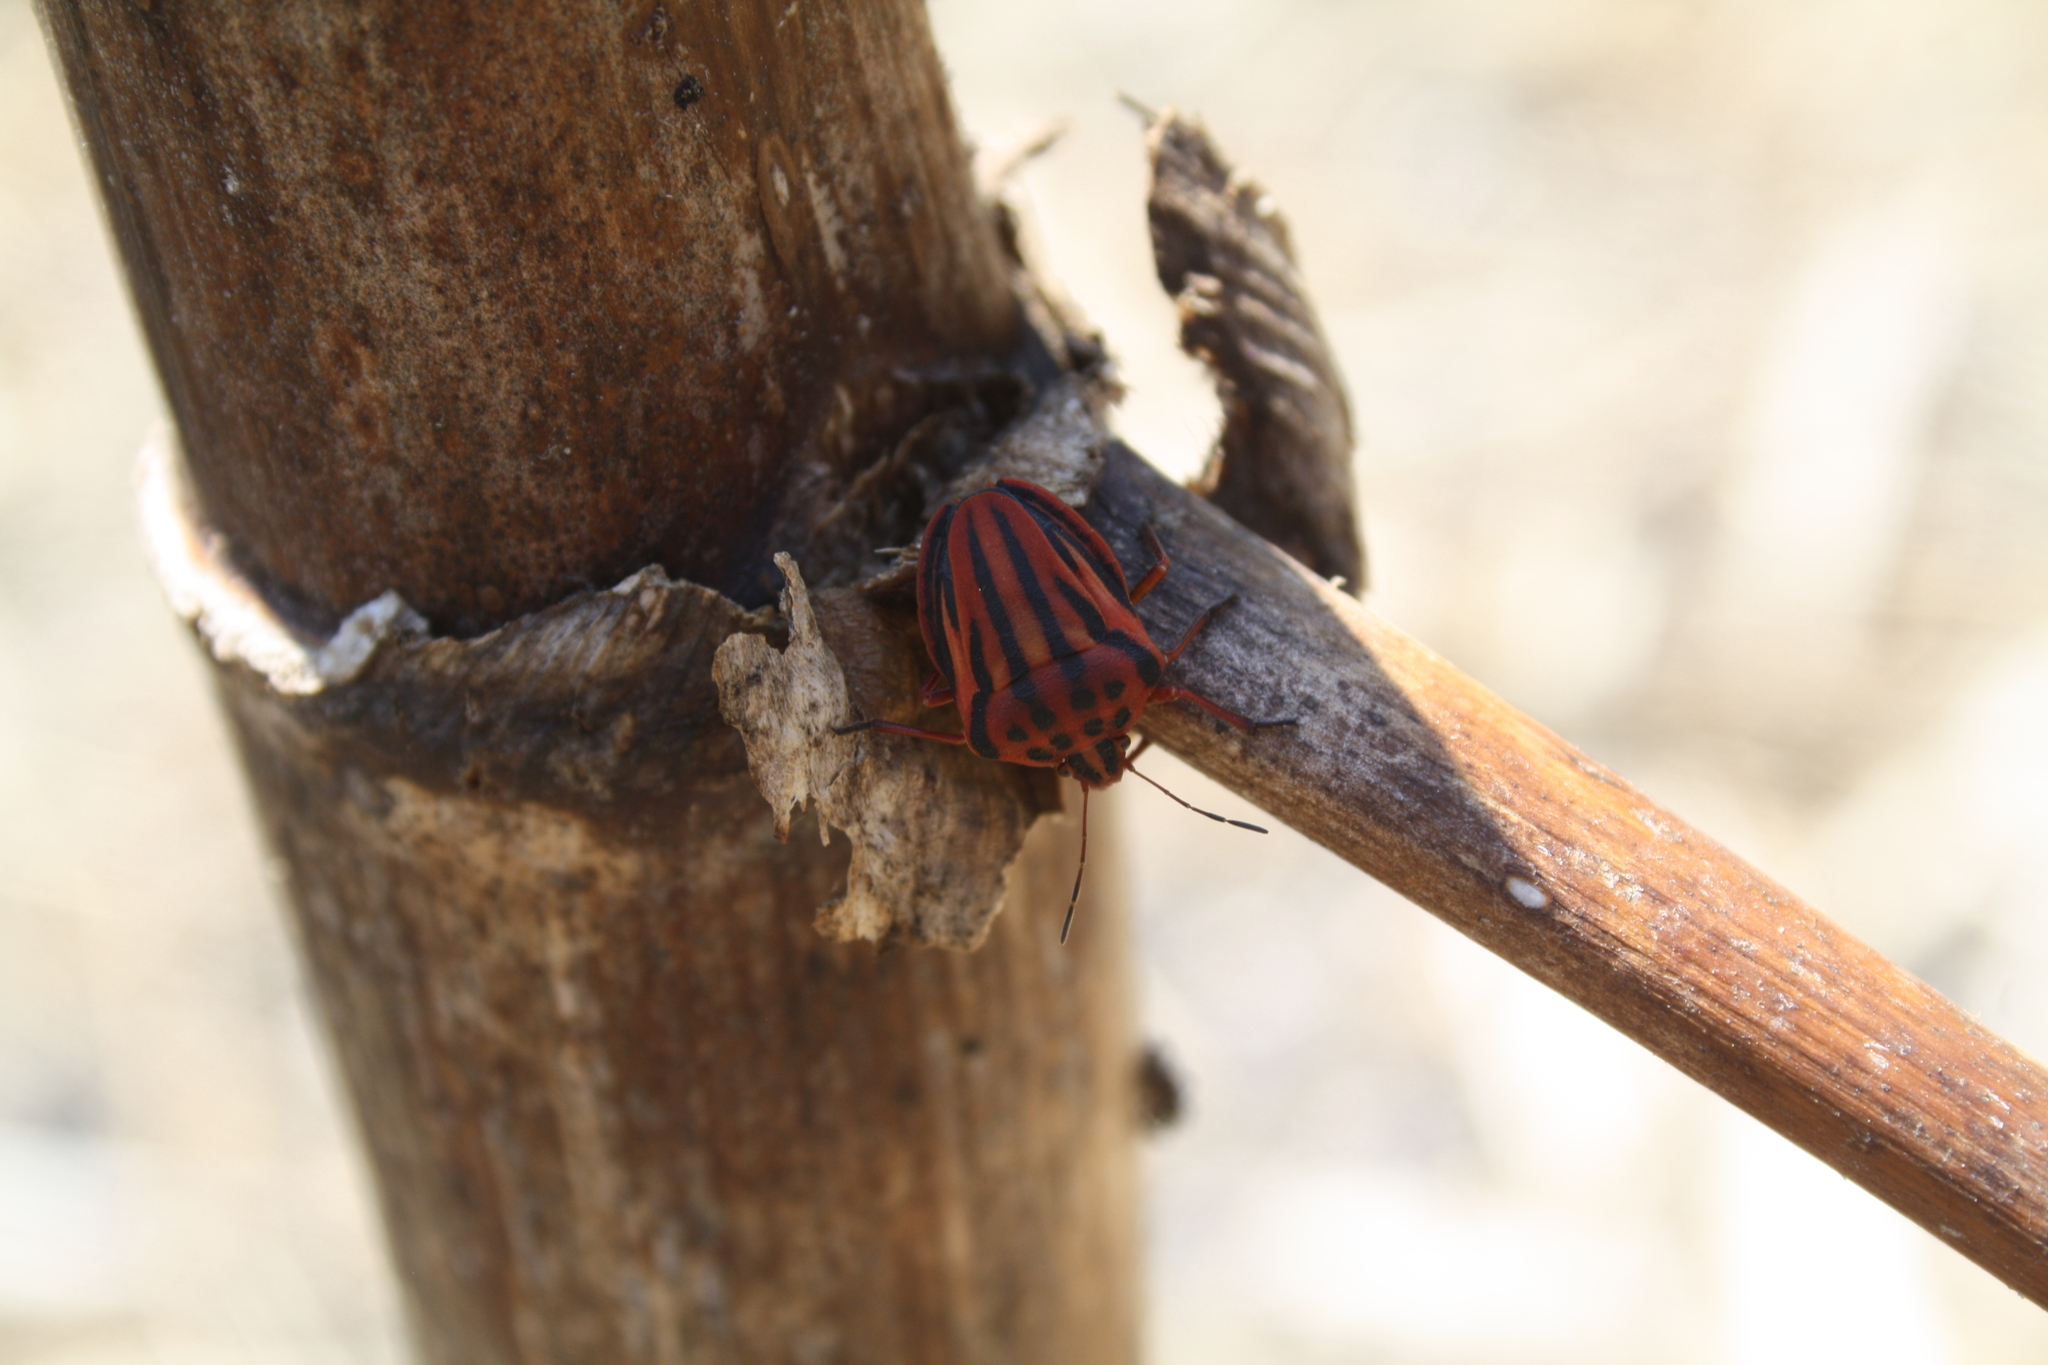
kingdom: Animalia
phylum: Arthropoda
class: Insecta
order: Hemiptera
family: Pentatomidae
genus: Graphosoma
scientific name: Graphosoma semipunctatum
